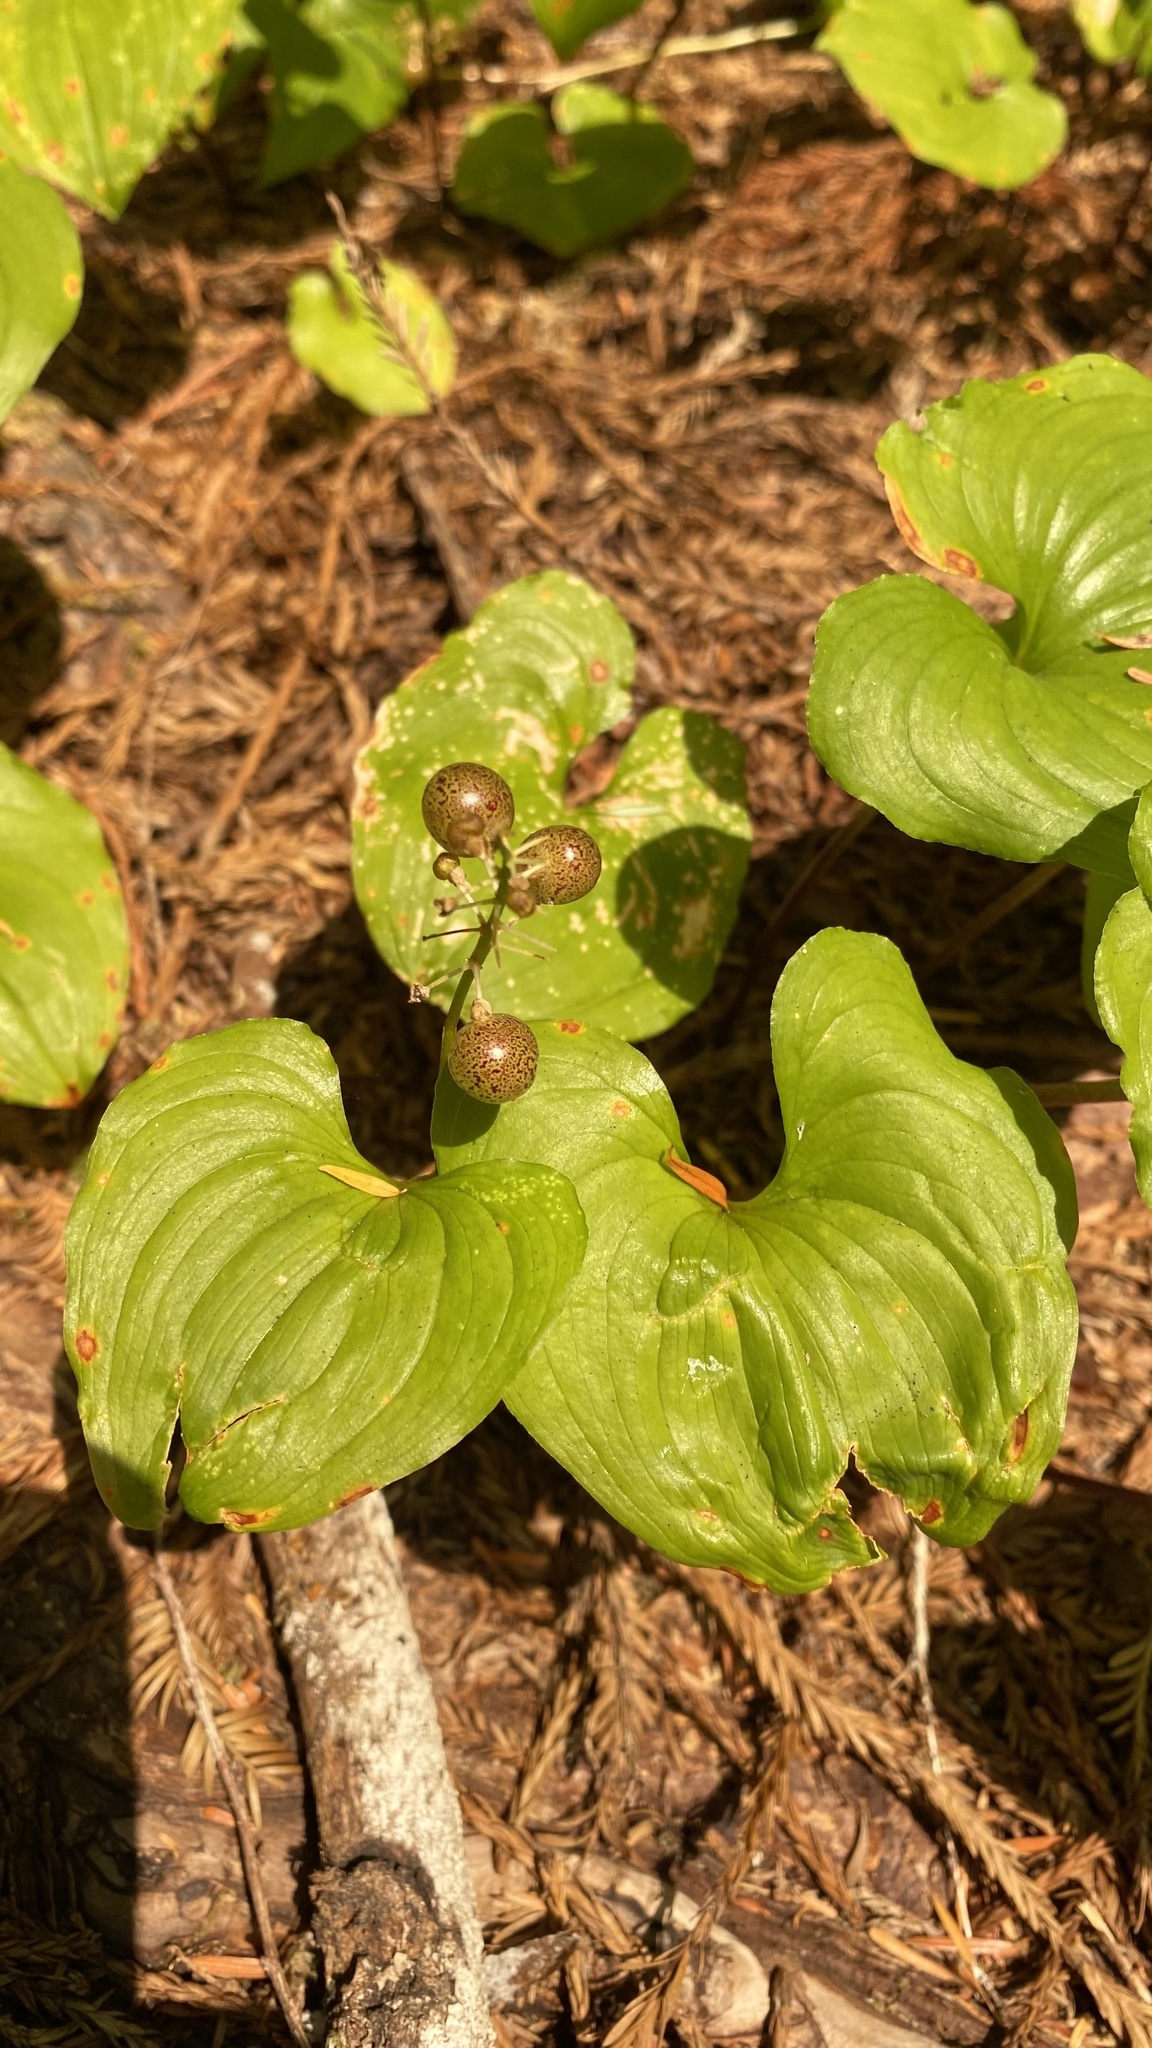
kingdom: Plantae
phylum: Tracheophyta
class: Liliopsida
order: Asparagales
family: Asparagaceae
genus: Maianthemum
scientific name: Maianthemum dilatatum
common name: False lily-of-the-valley
